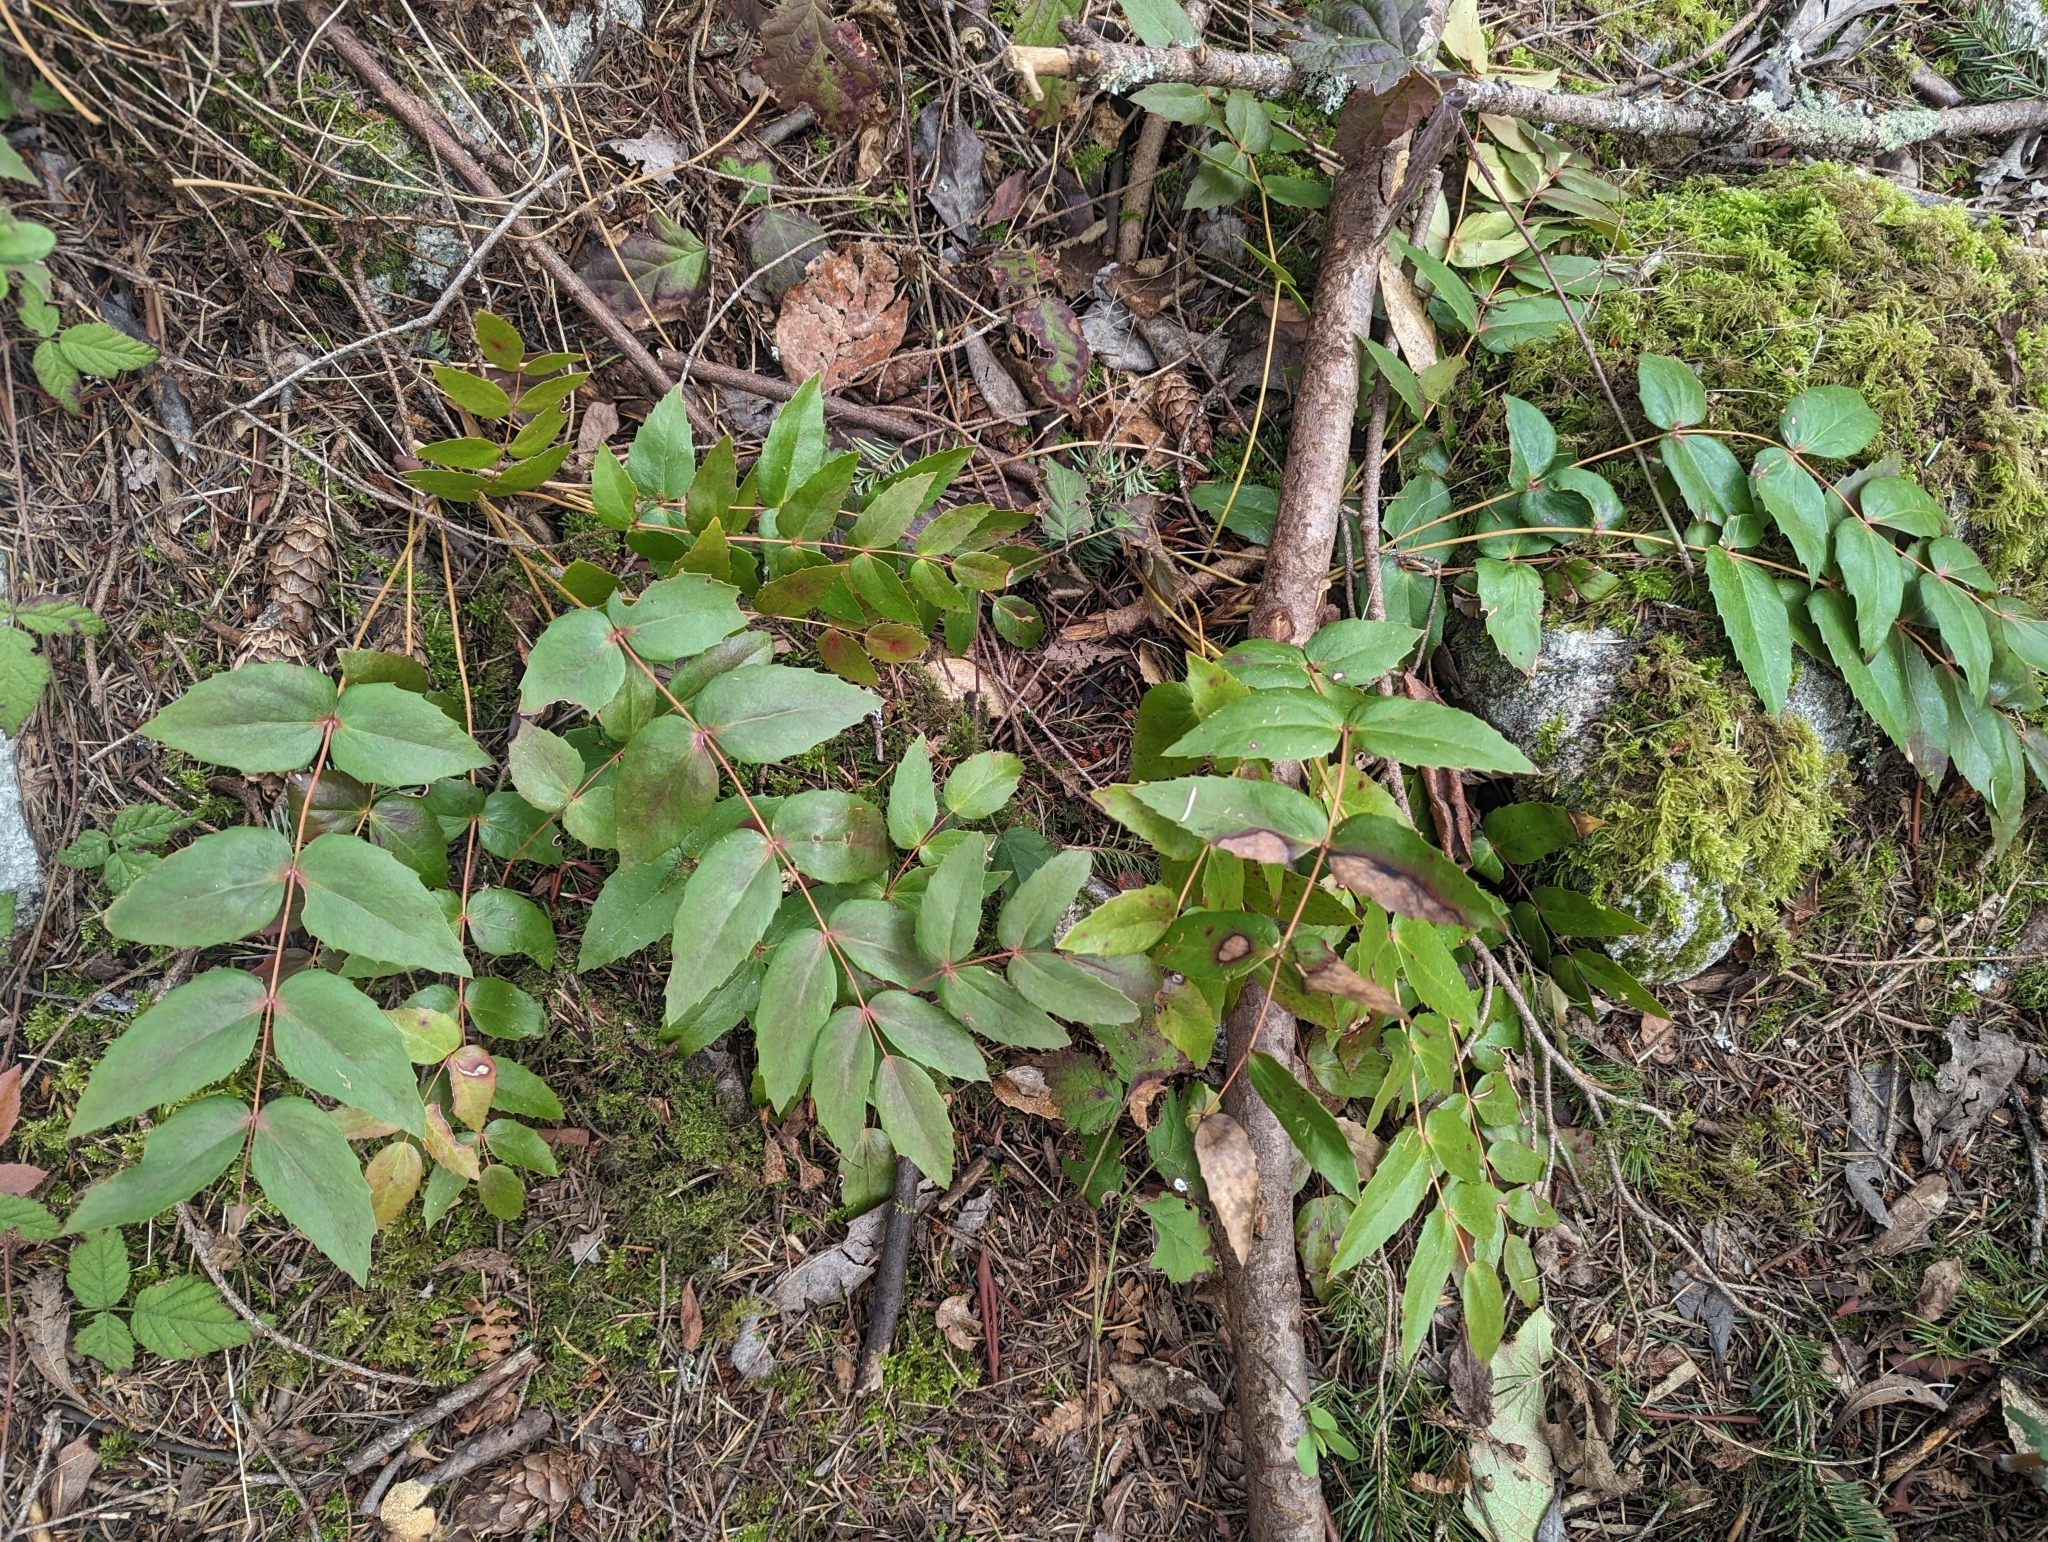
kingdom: Plantae
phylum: Tracheophyta
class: Magnoliopsida
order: Ranunculales
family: Berberidaceae
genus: Mahonia
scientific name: Mahonia nervosa
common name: Cascade oregon-grape
